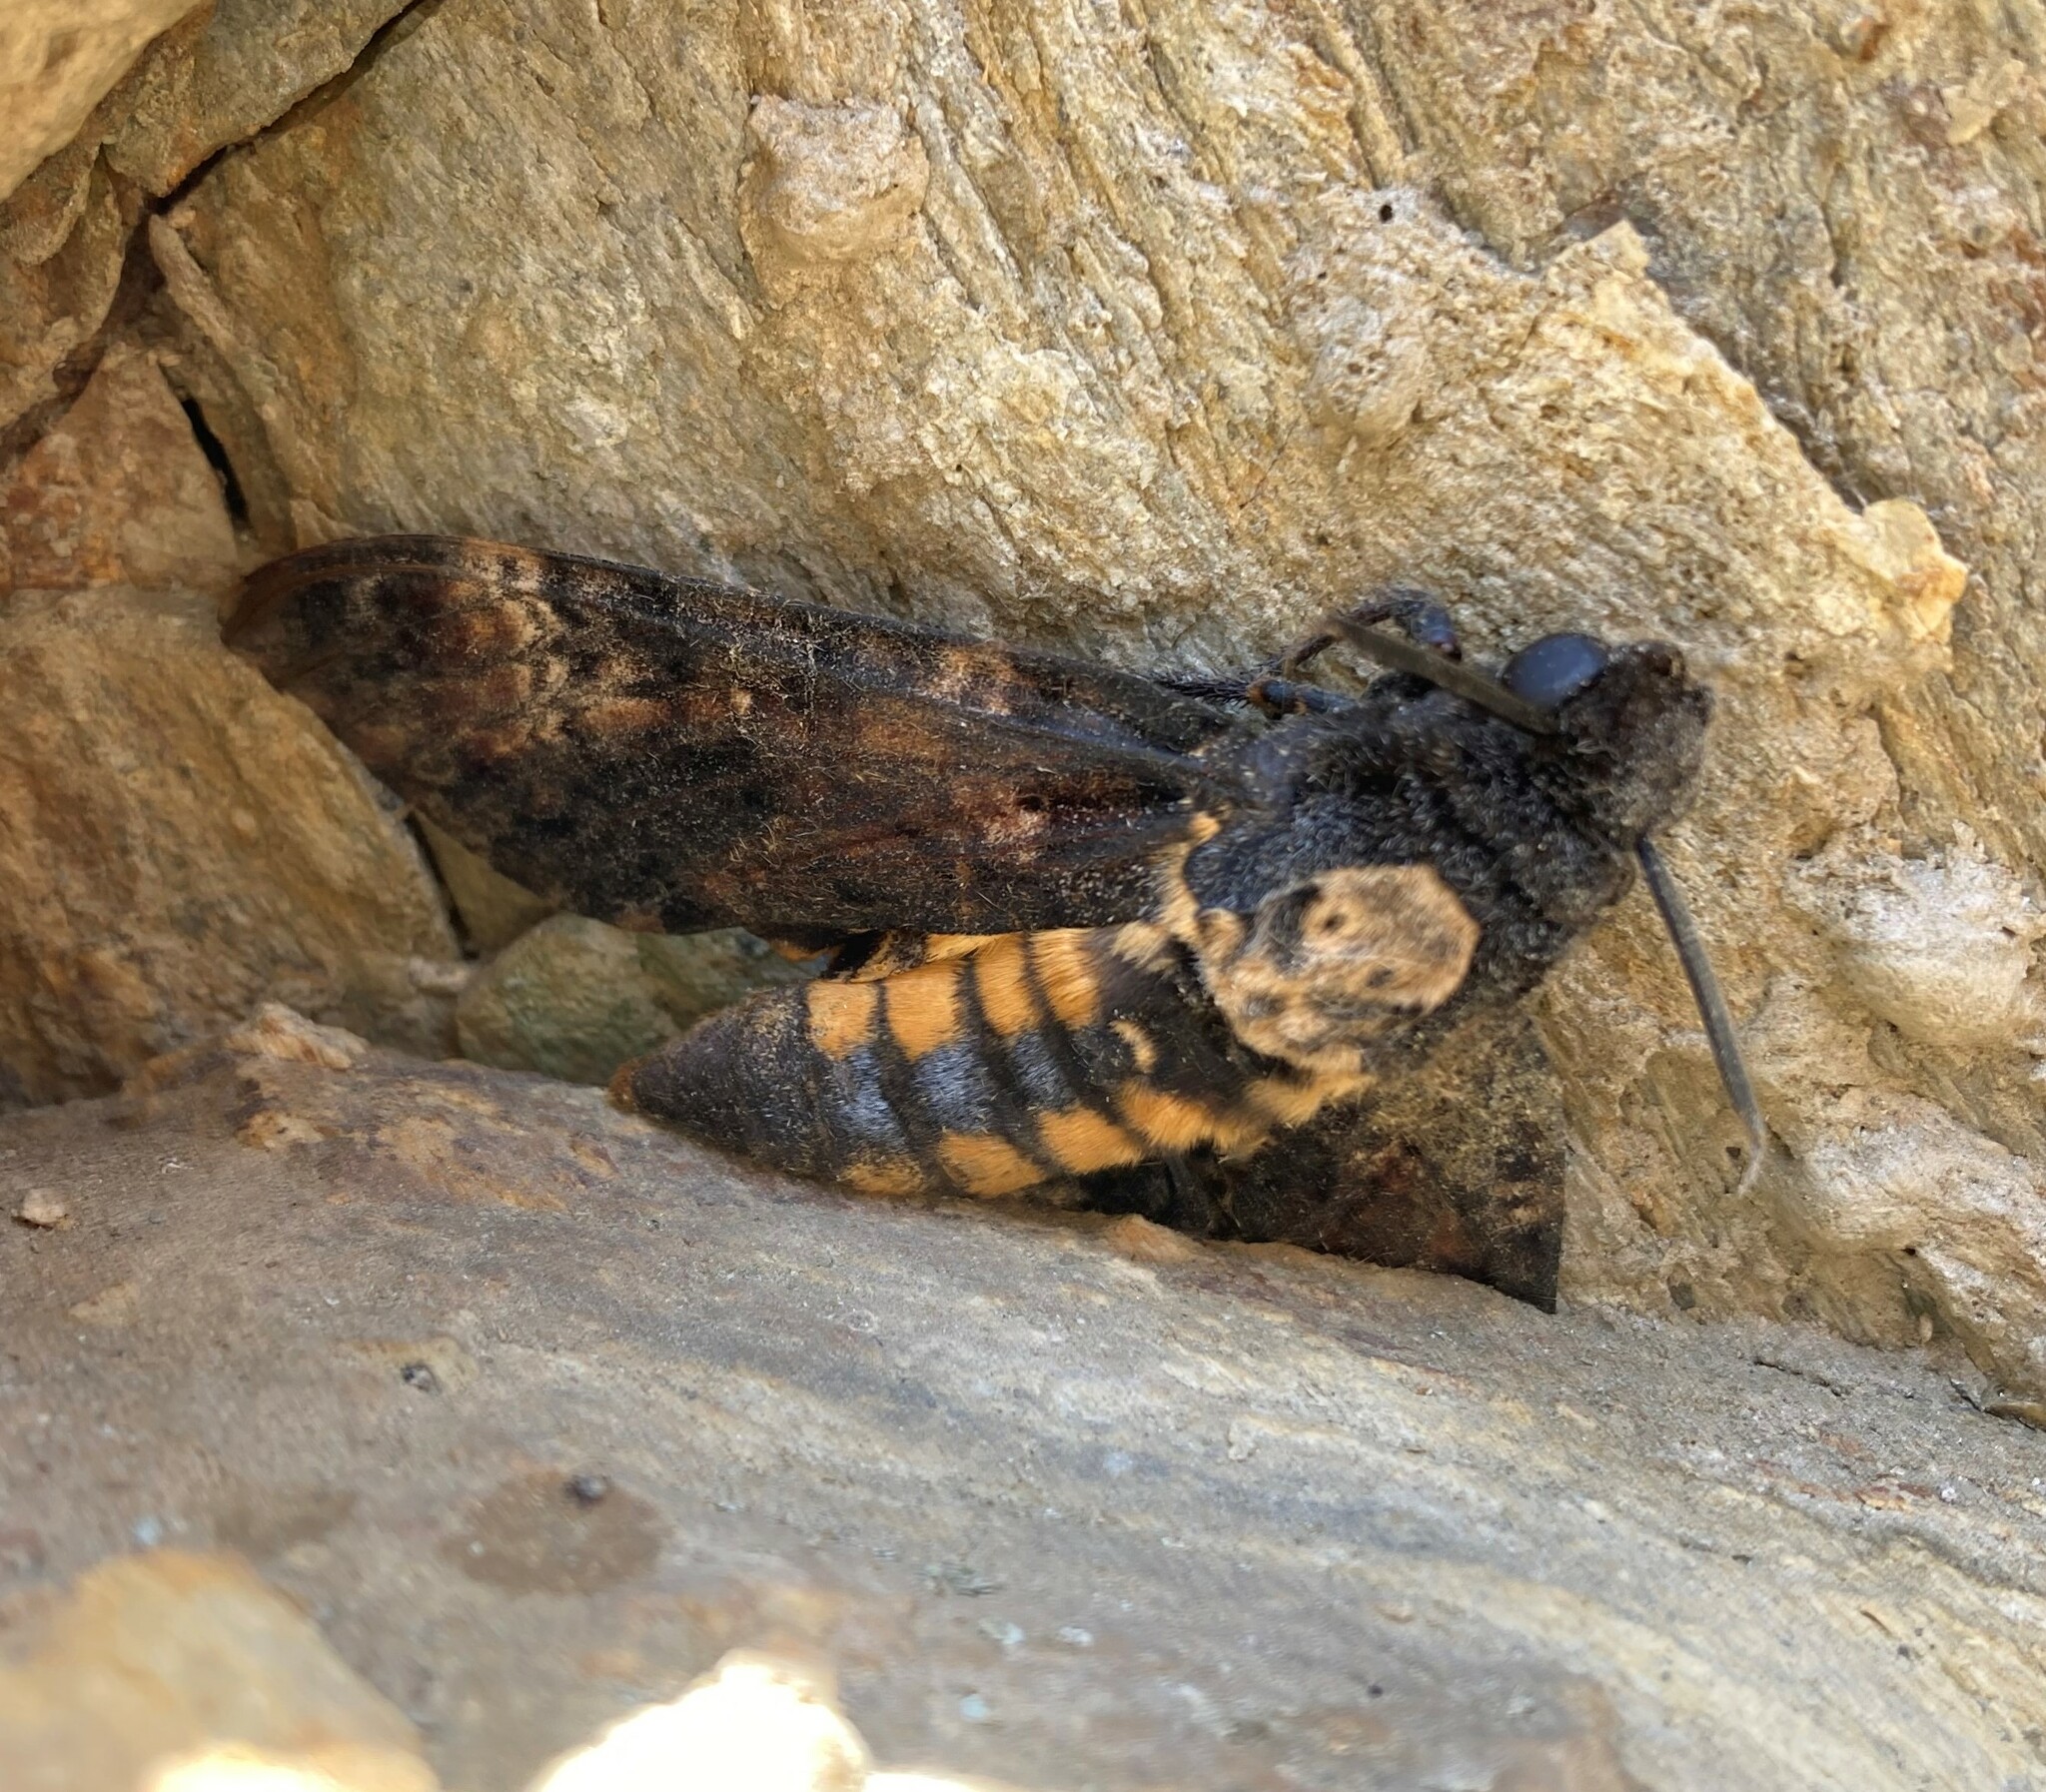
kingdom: Animalia
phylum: Arthropoda
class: Insecta
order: Lepidoptera
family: Sphingidae
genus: Acherontia
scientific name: Acherontia atropos
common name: Death's-head hawk moth
